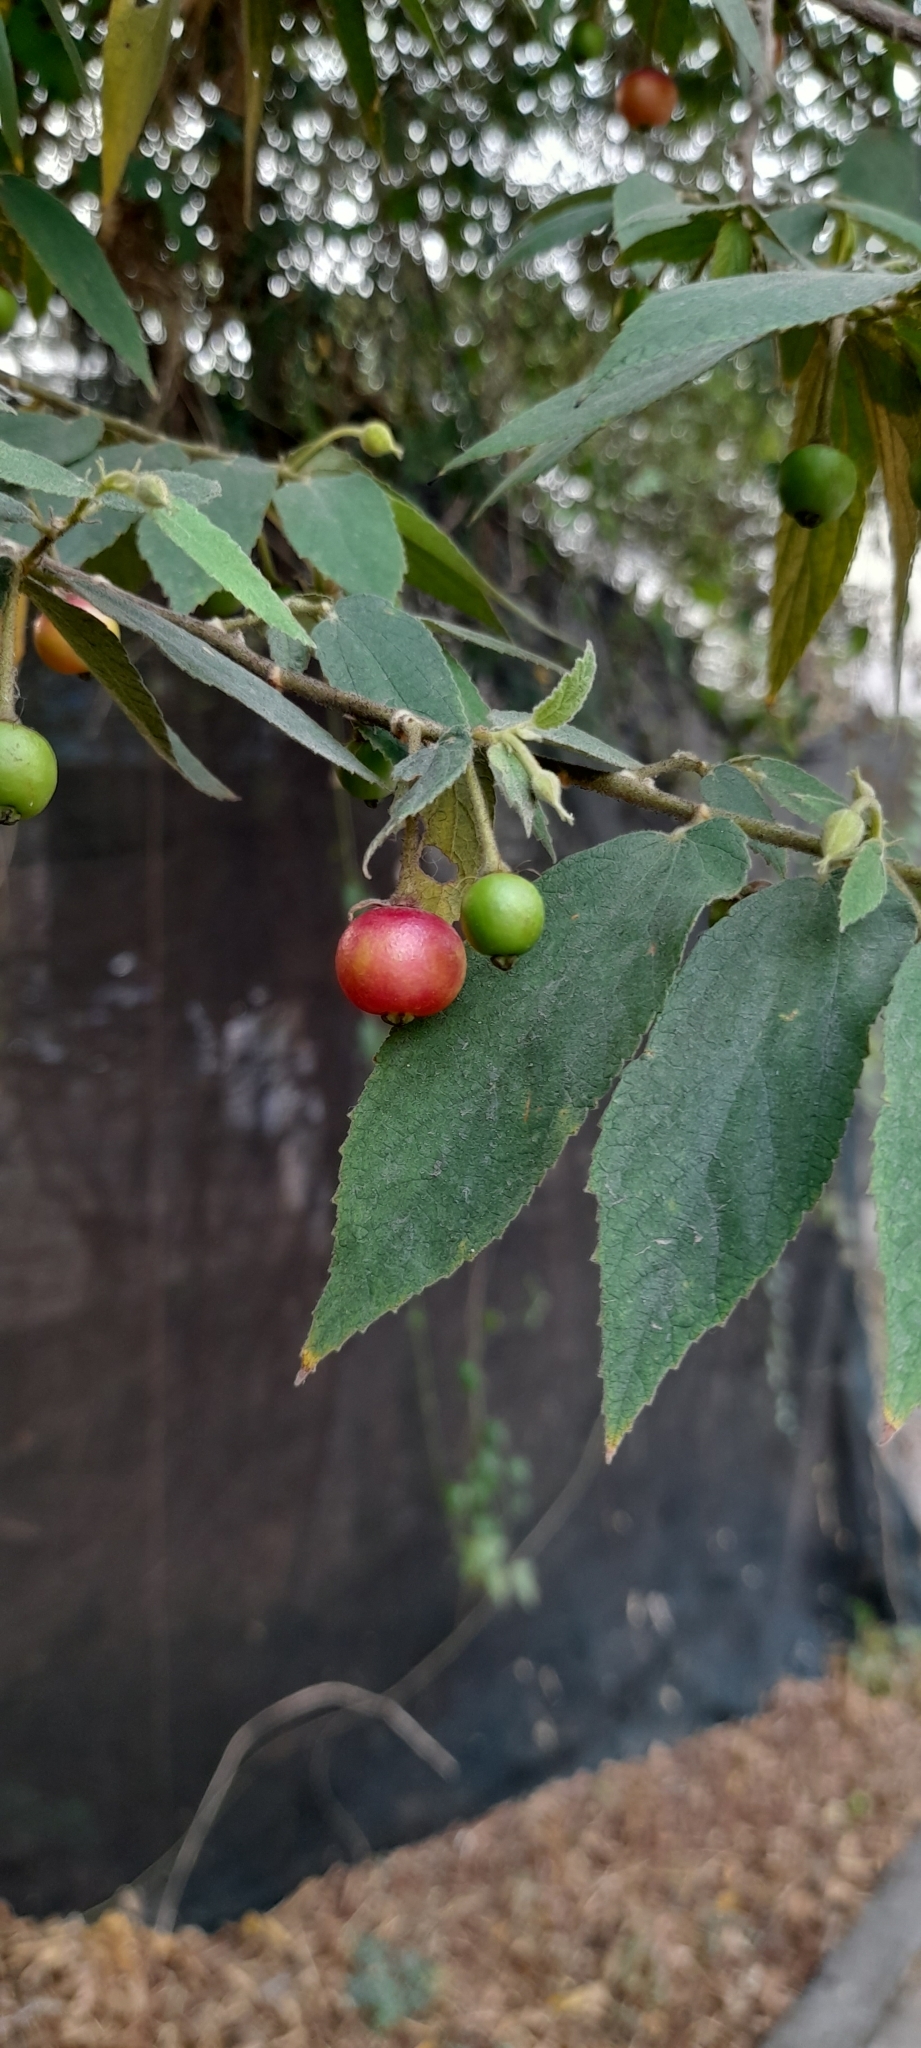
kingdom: Plantae
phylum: Tracheophyta
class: Magnoliopsida
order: Malvales
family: Muntingiaceae
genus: Muntingia
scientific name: Muntingia calabura
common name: Strawberrytree
